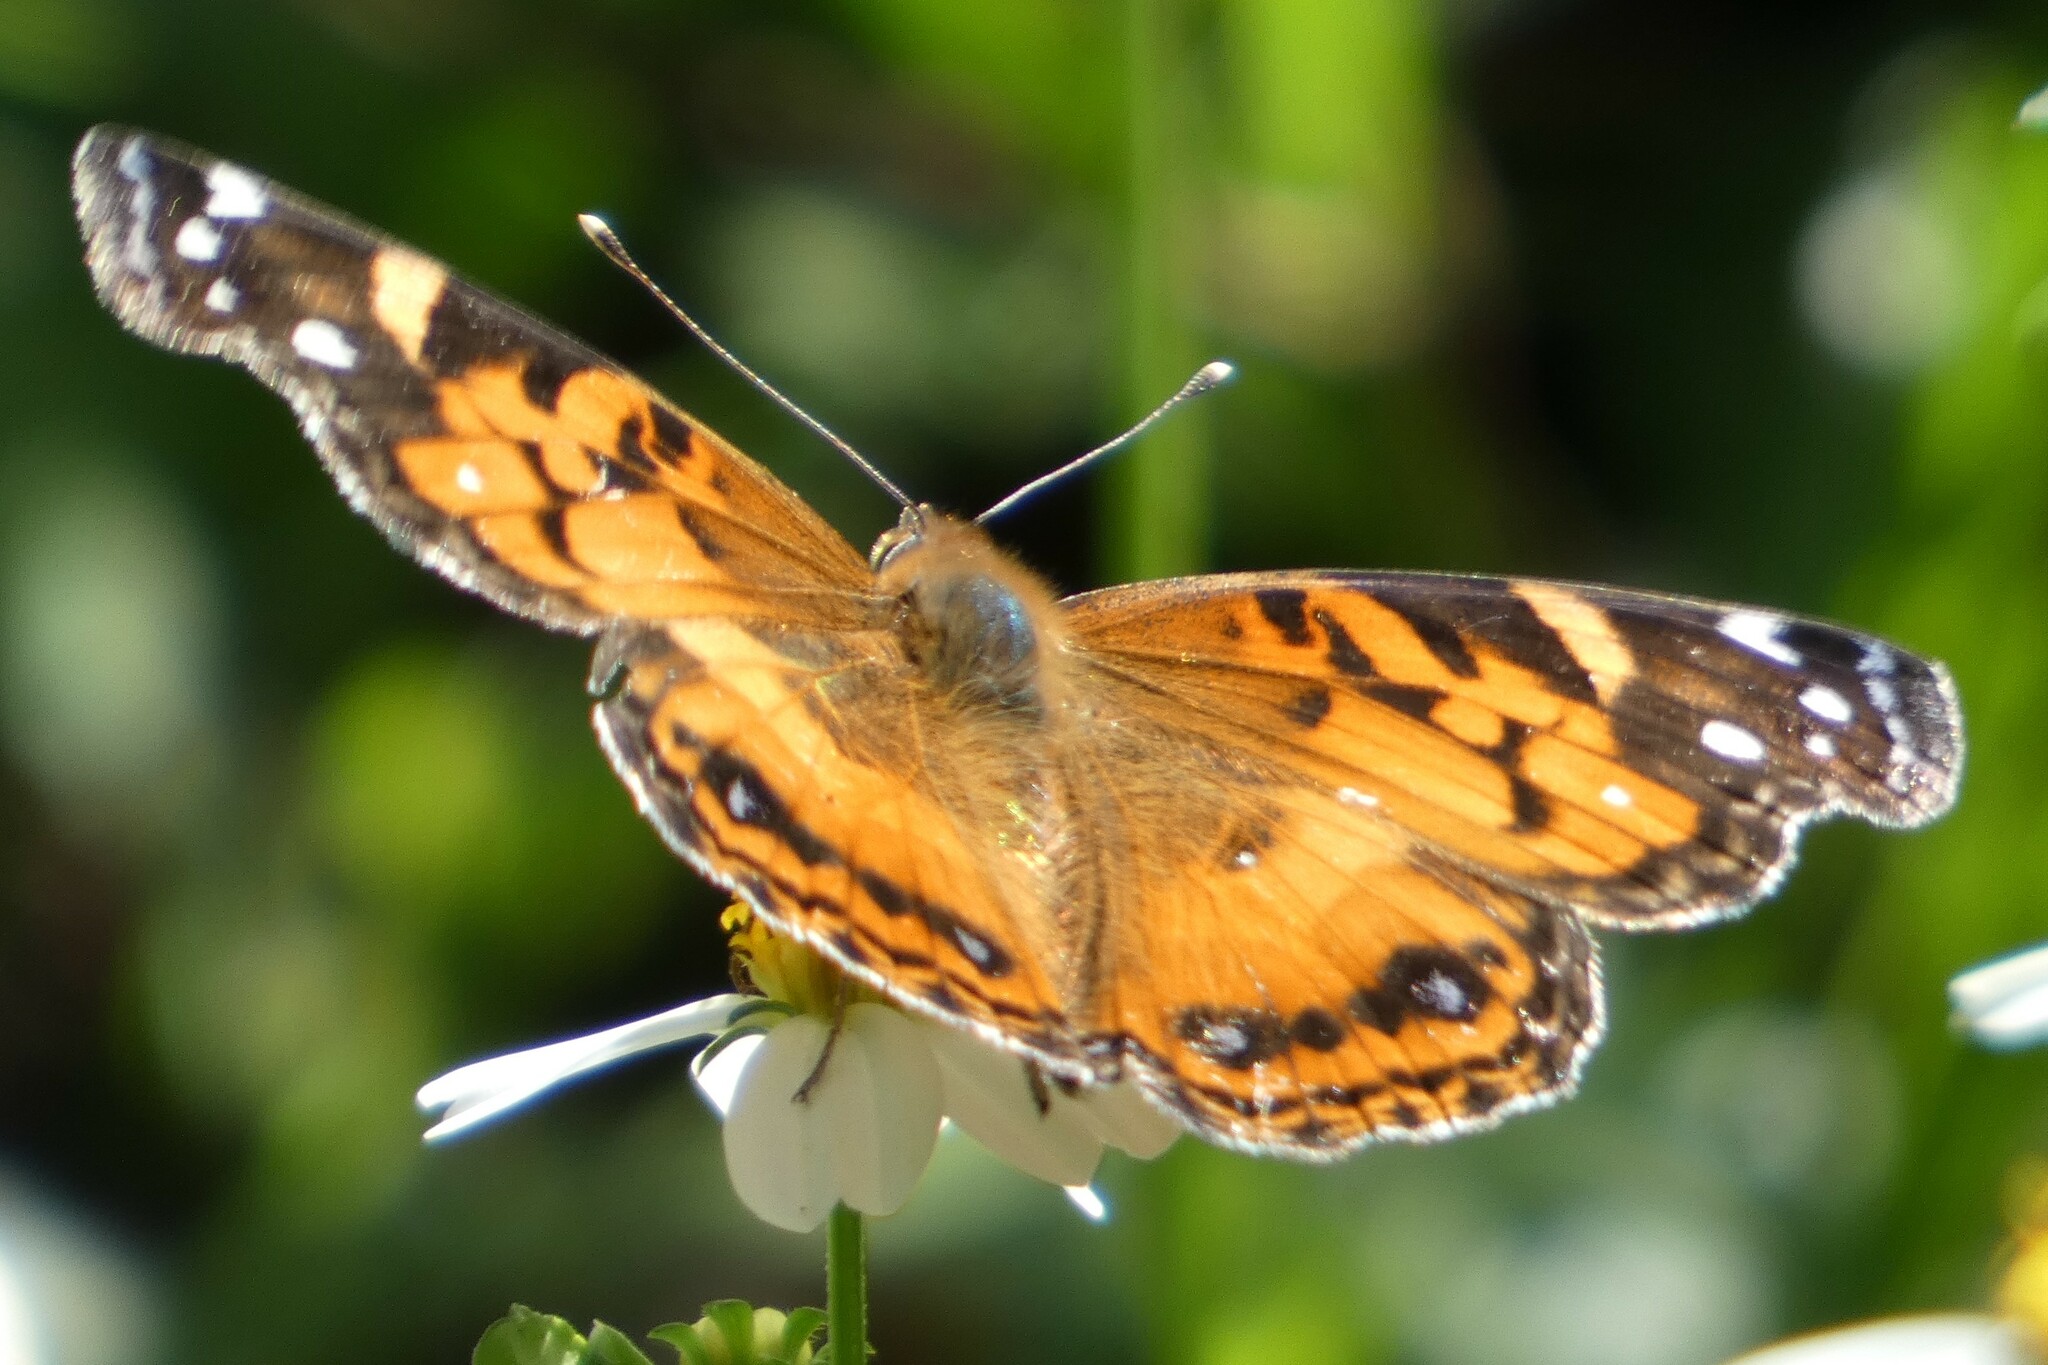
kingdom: Animalia
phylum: Arthropoda
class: Insecta
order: Lepidoptera
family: Nymphalidae
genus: Vanessa
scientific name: Vanessa virginiensis
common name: American lady
